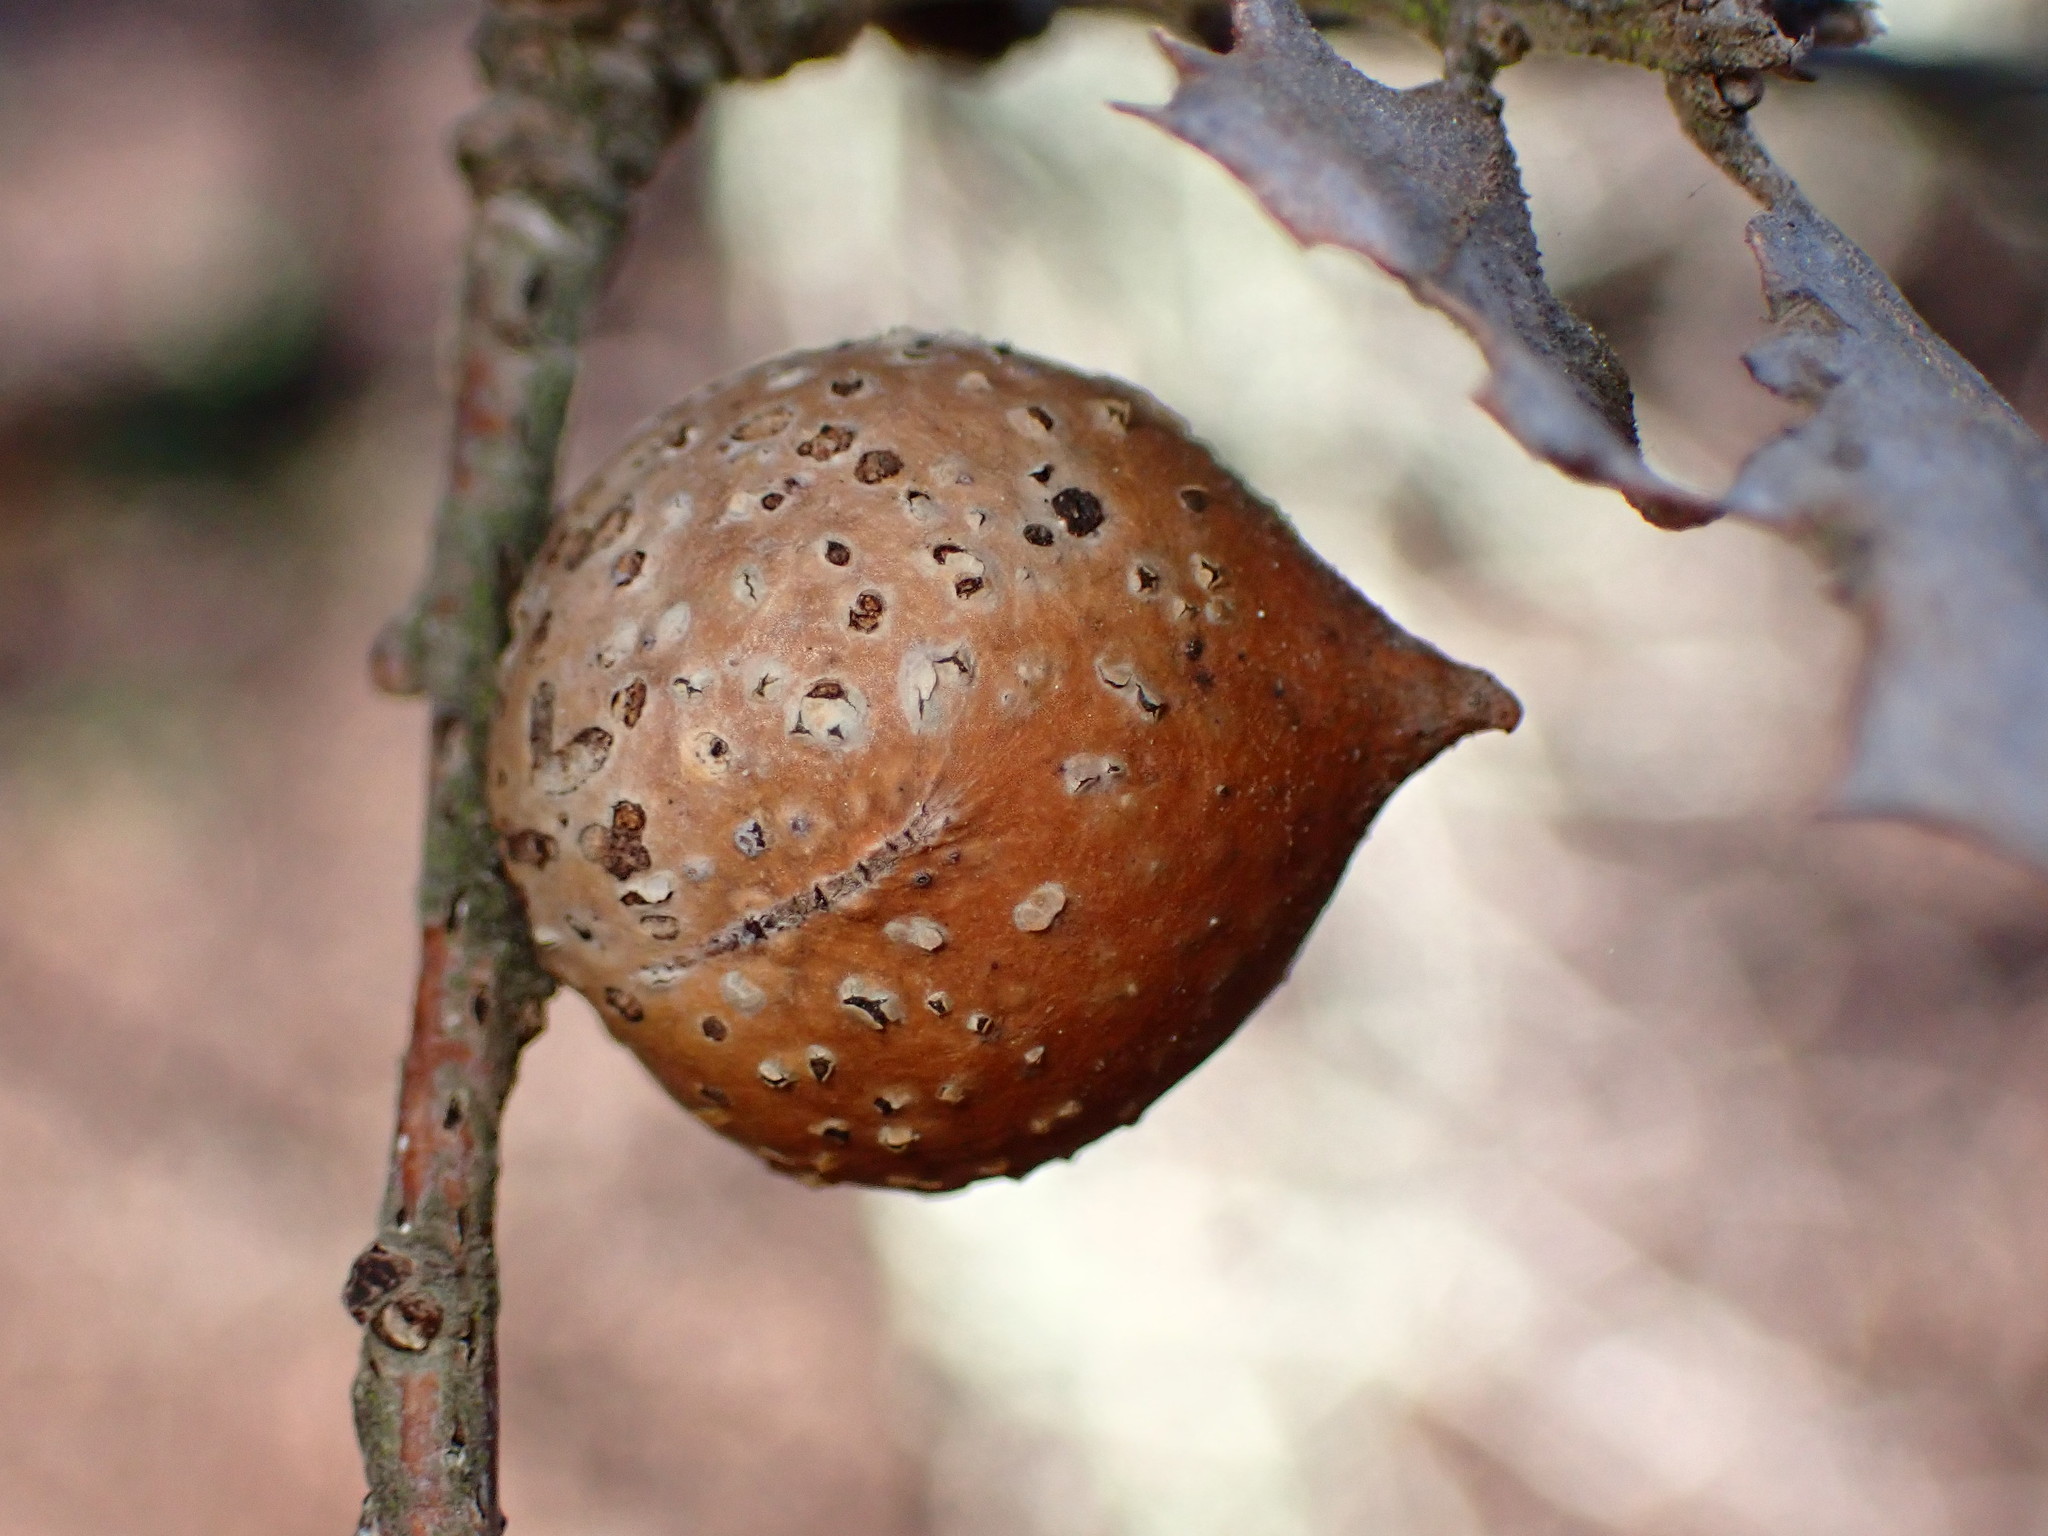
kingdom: Animalia
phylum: Arthropoda
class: Insecta
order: Hymenoptera
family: Cynipidae
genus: Burnettweldia
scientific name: Burnettweldia
